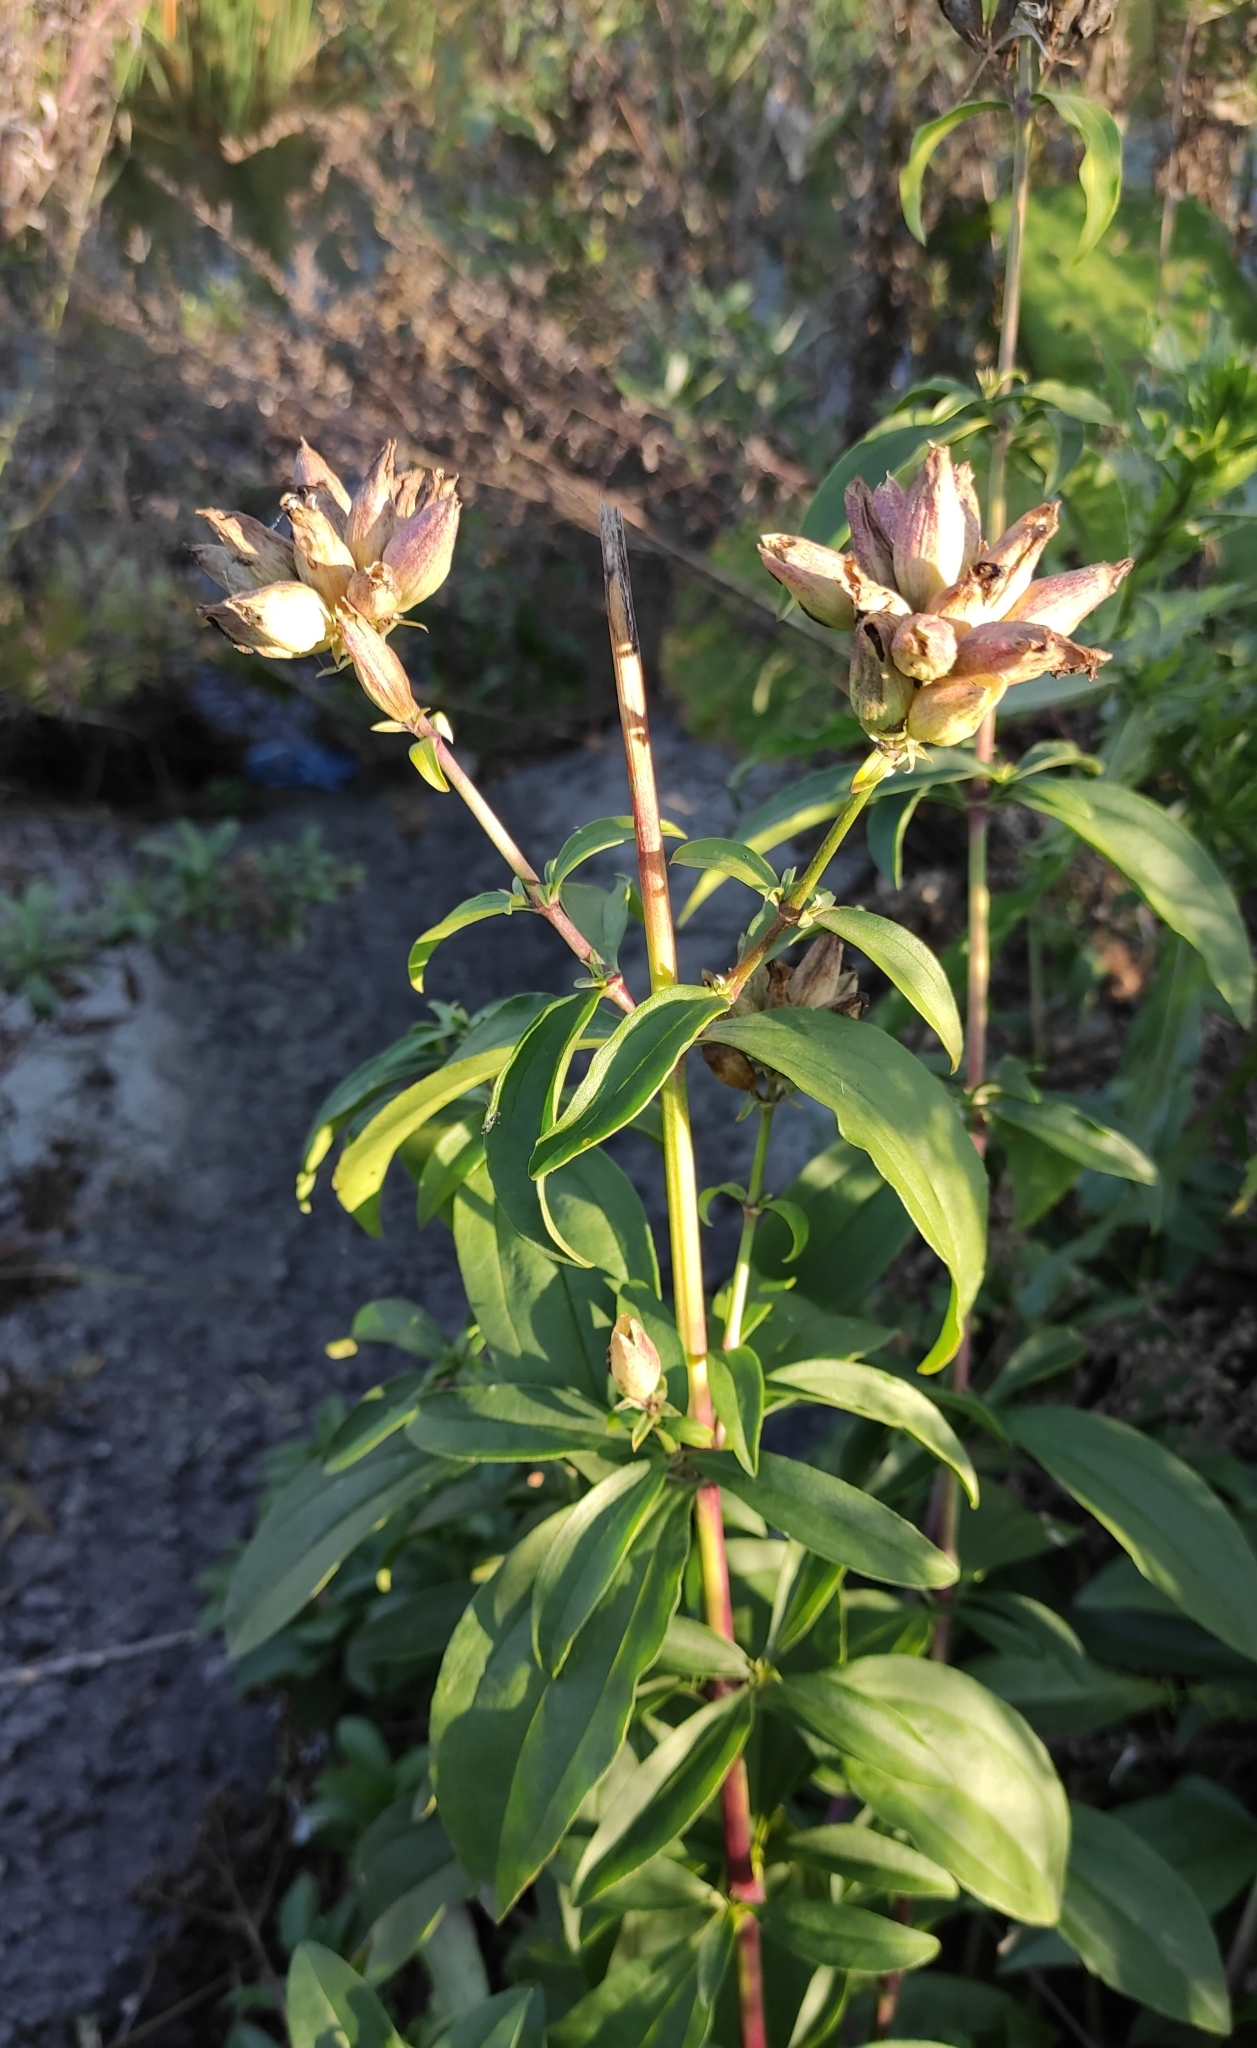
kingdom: Plantae
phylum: Tracheophyta
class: Magnoliopsida
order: Caryophyllales
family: Caryophyllaceae
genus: Saponaria
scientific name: Saponaria officinalis
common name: Soapwort
